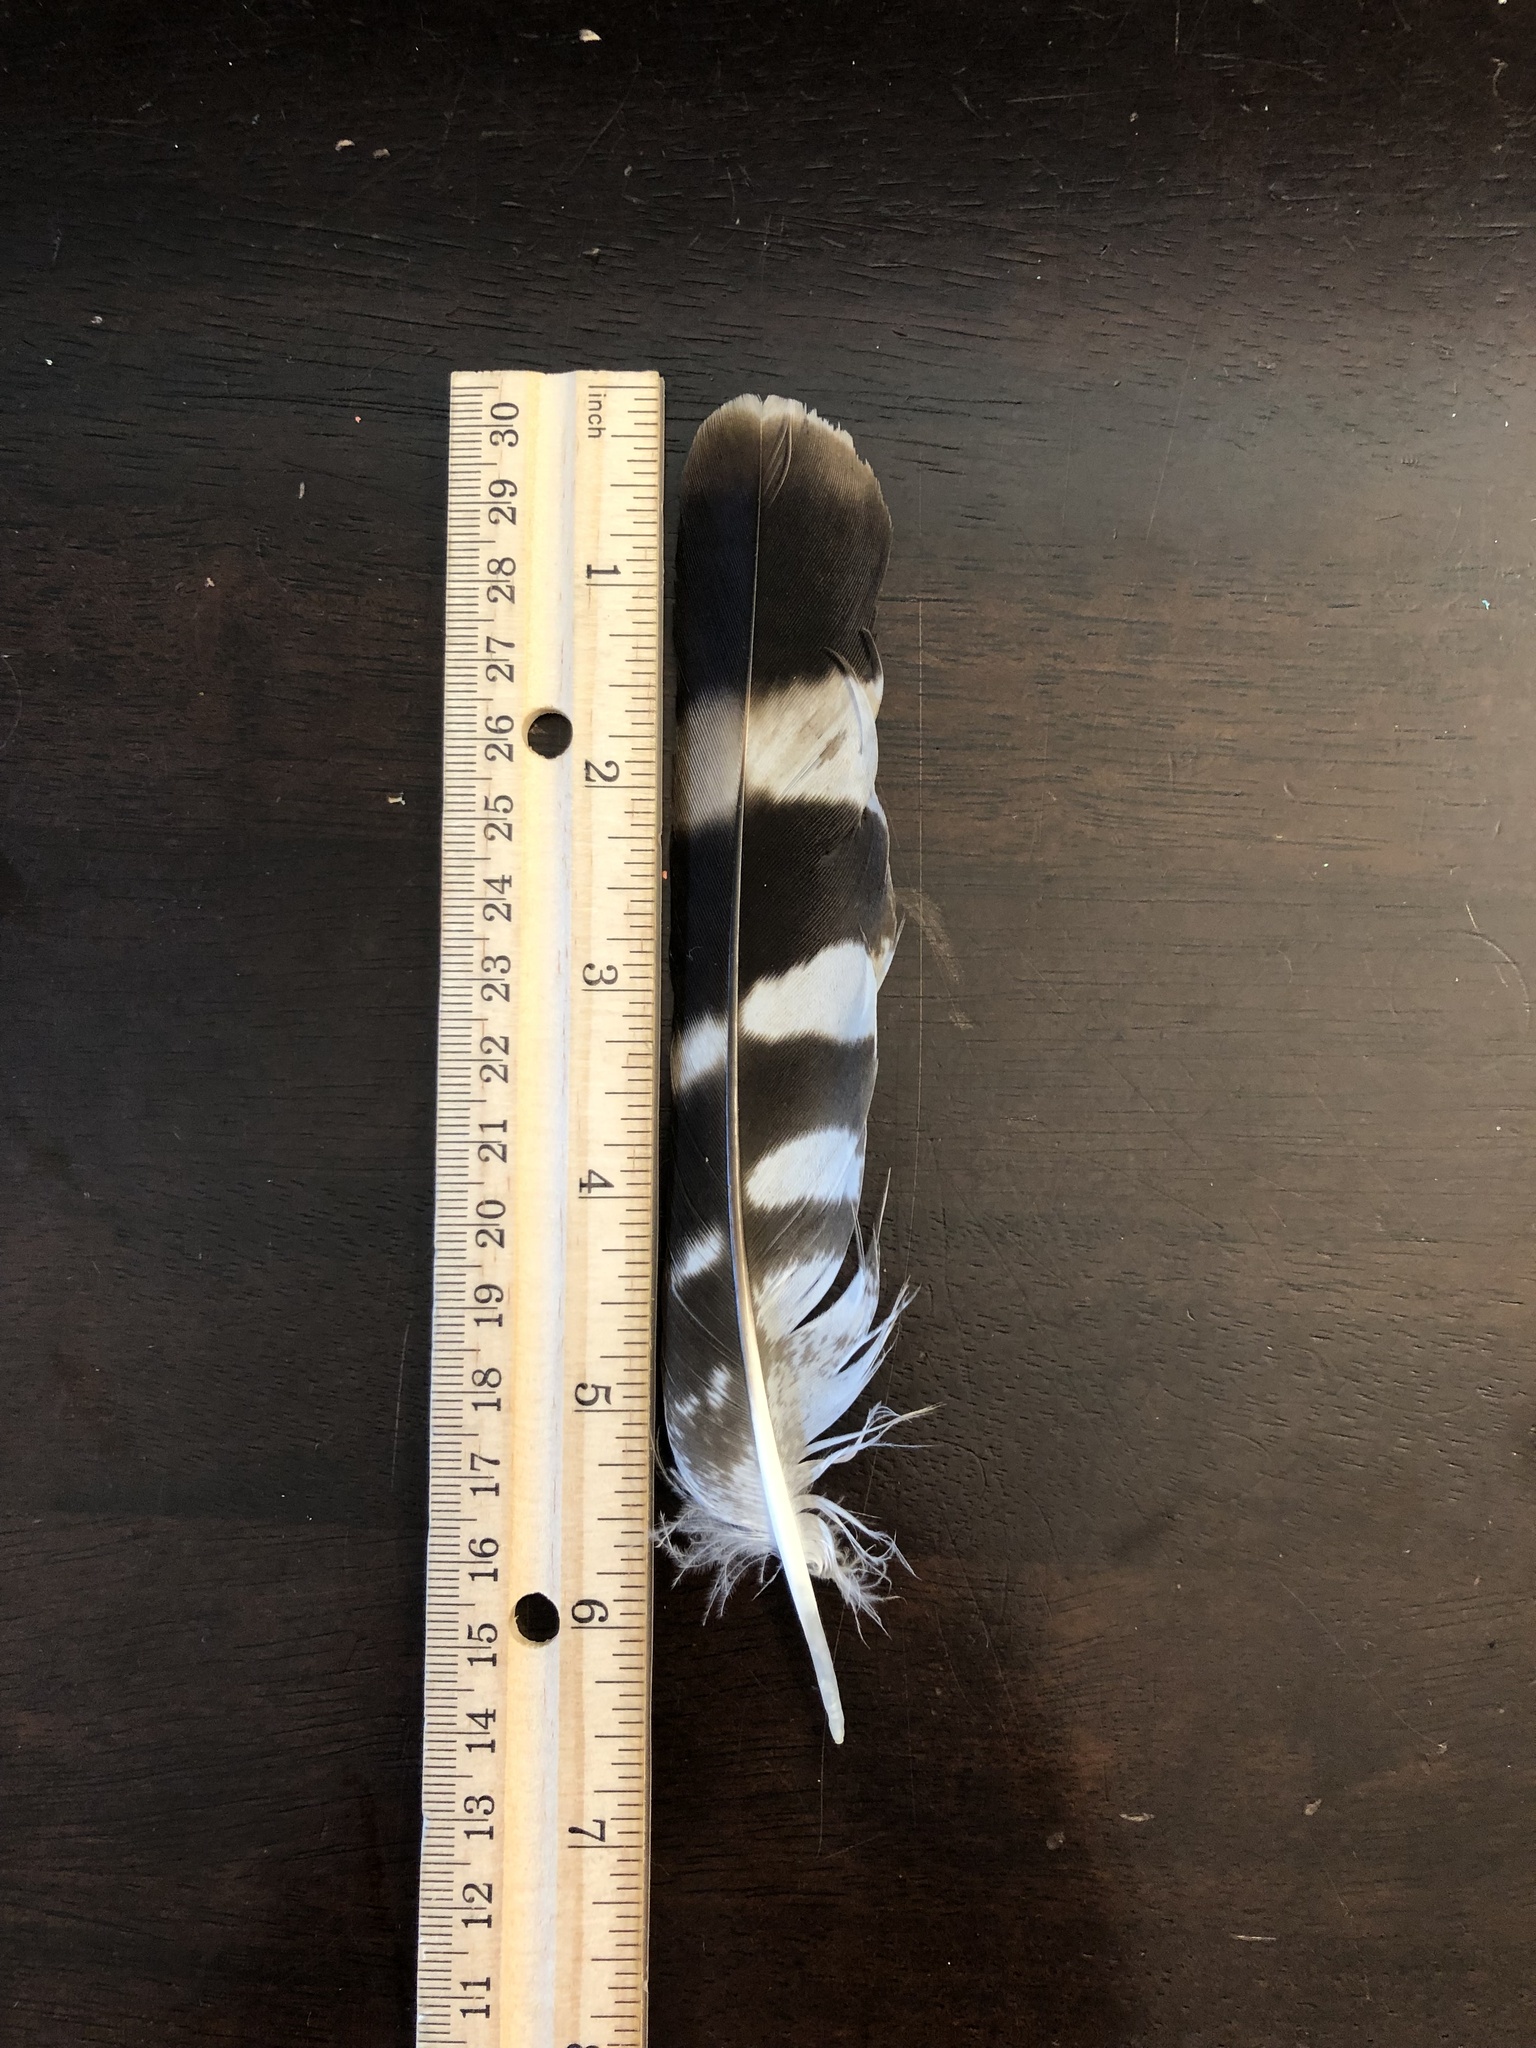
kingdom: Animalia
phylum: Chordata
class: Aves
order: Accipitriformes
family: Accipitridae
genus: Buteo
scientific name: Buteo platypterus
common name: Broad-winged hawk
